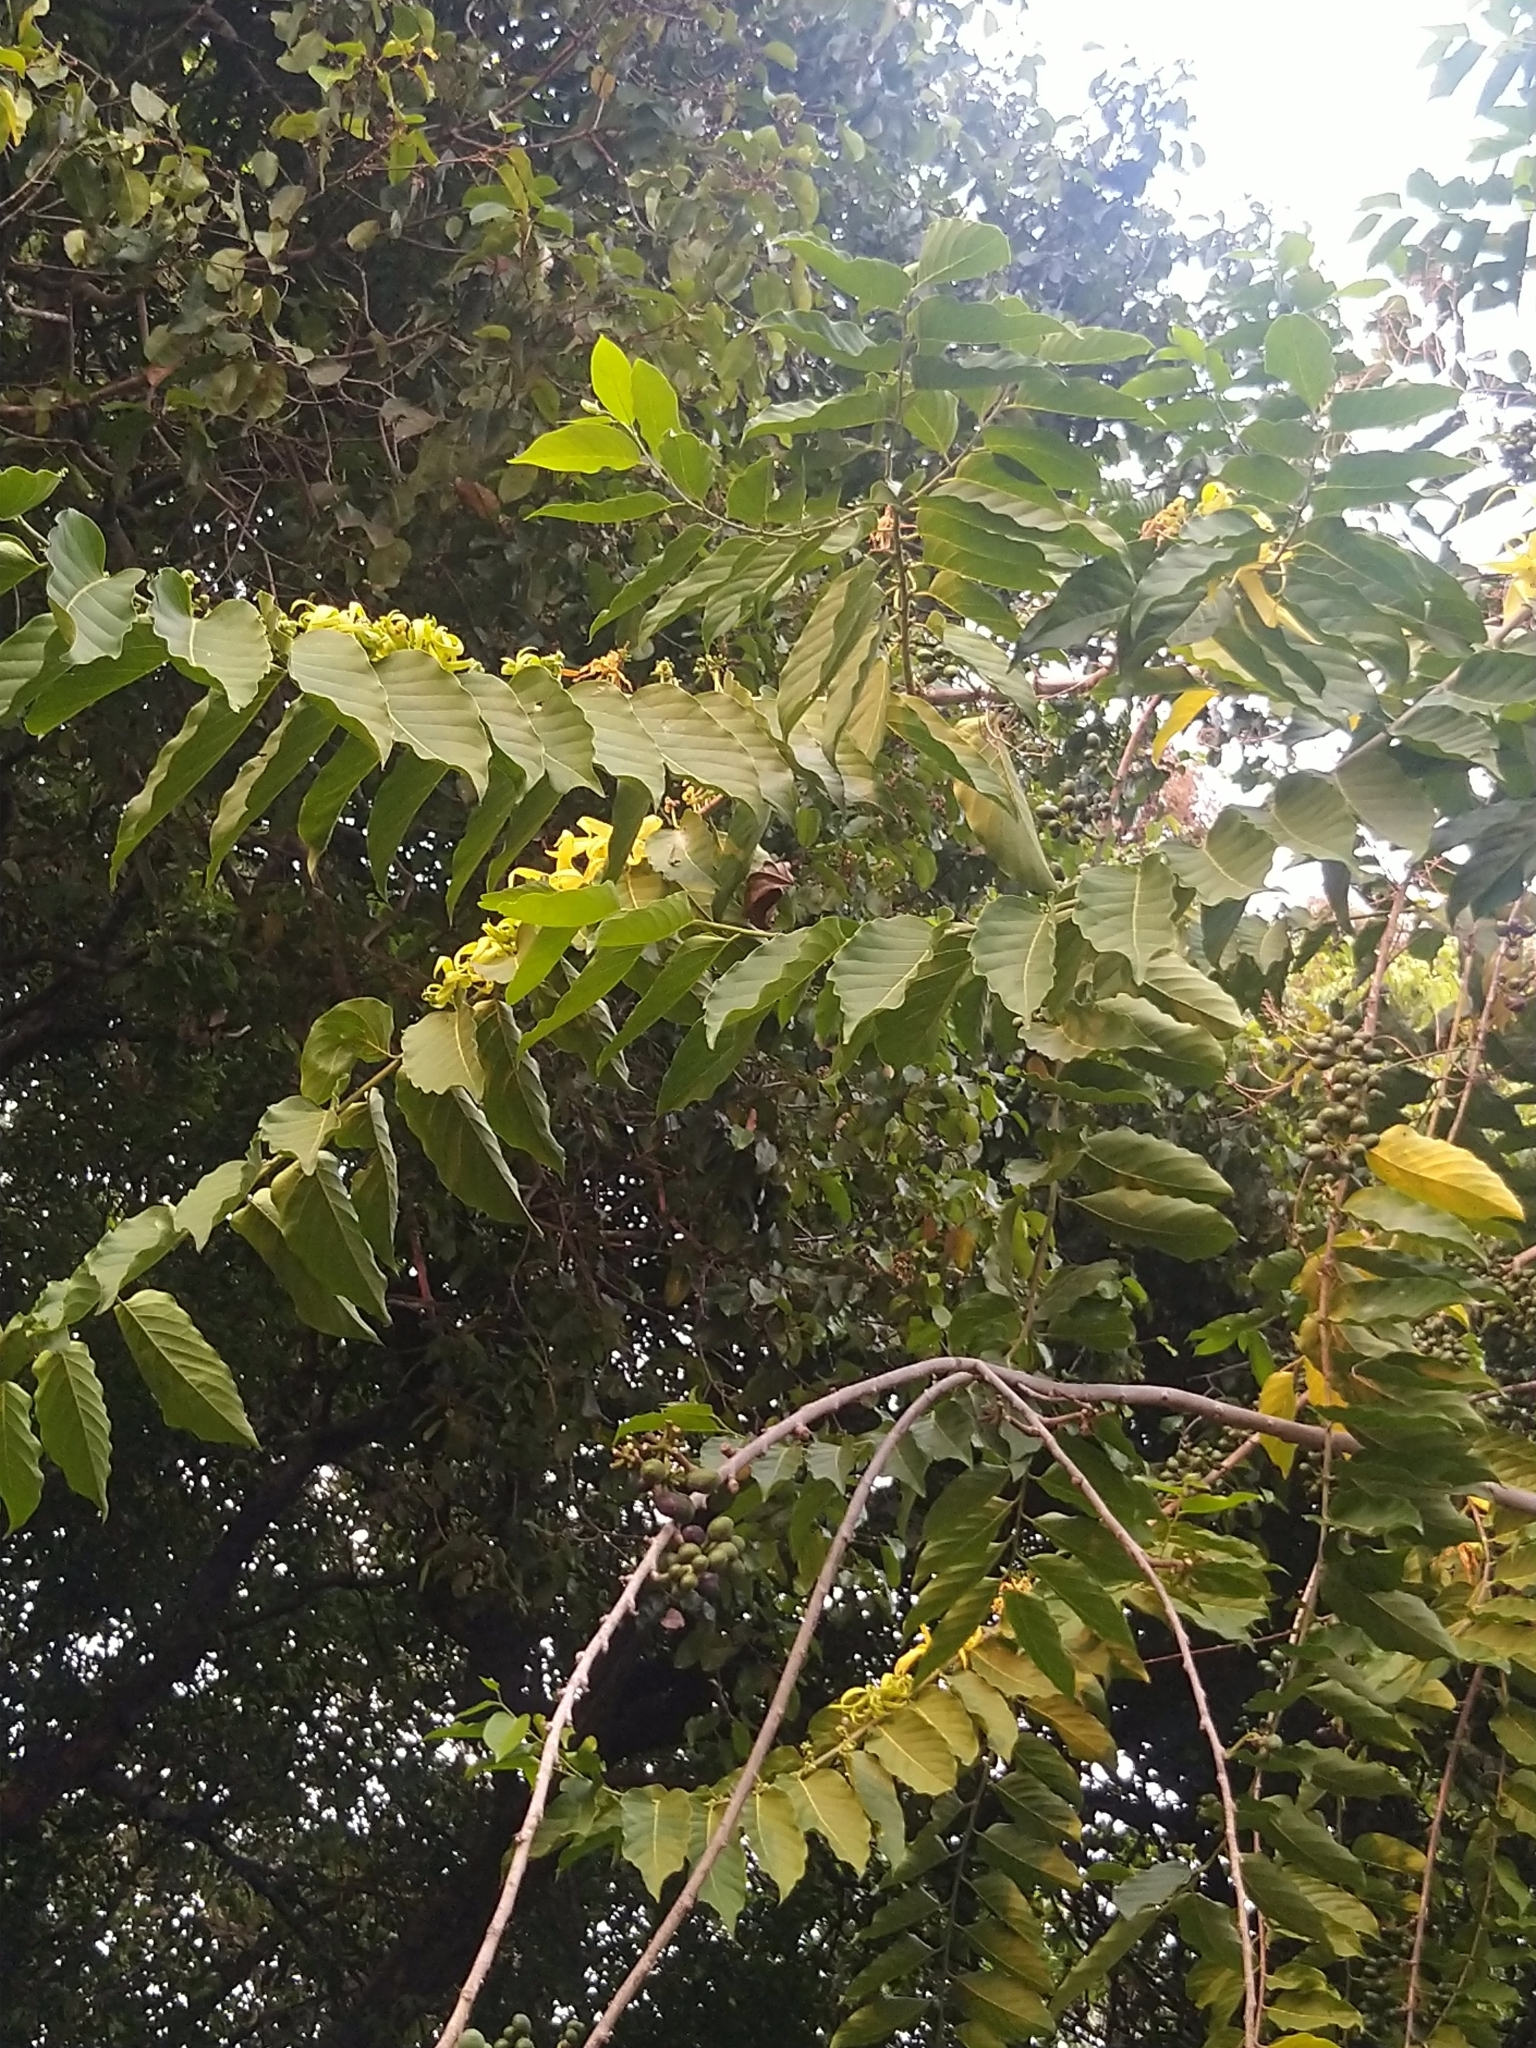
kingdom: Plantae
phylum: Tracheophyta
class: Magnoliopsida
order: Magnoliales
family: Annonaceae
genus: Cananga
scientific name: Cananga odorata
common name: Cananga tree
